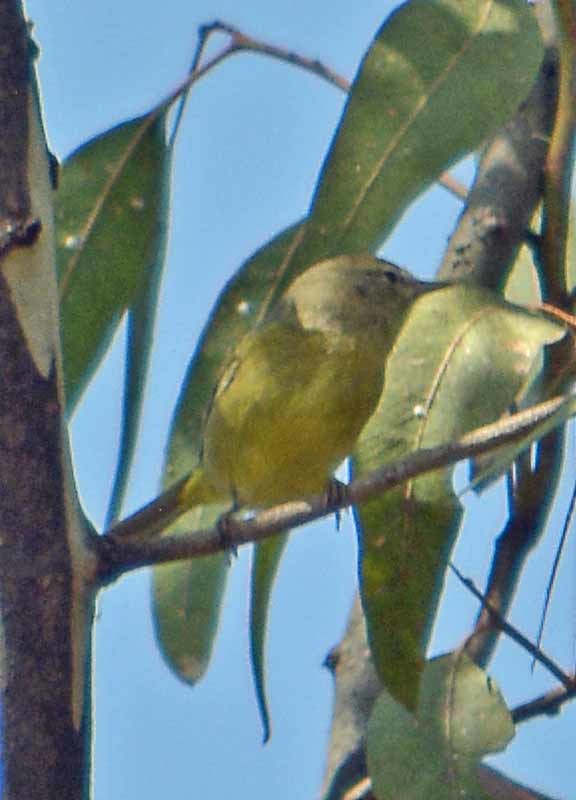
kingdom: Animalia
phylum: Chordata
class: Aves
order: Passeriformes
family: Parulidae
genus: Leiothlypis
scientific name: Leiothlypis celata
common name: Orange-crowned warbler
